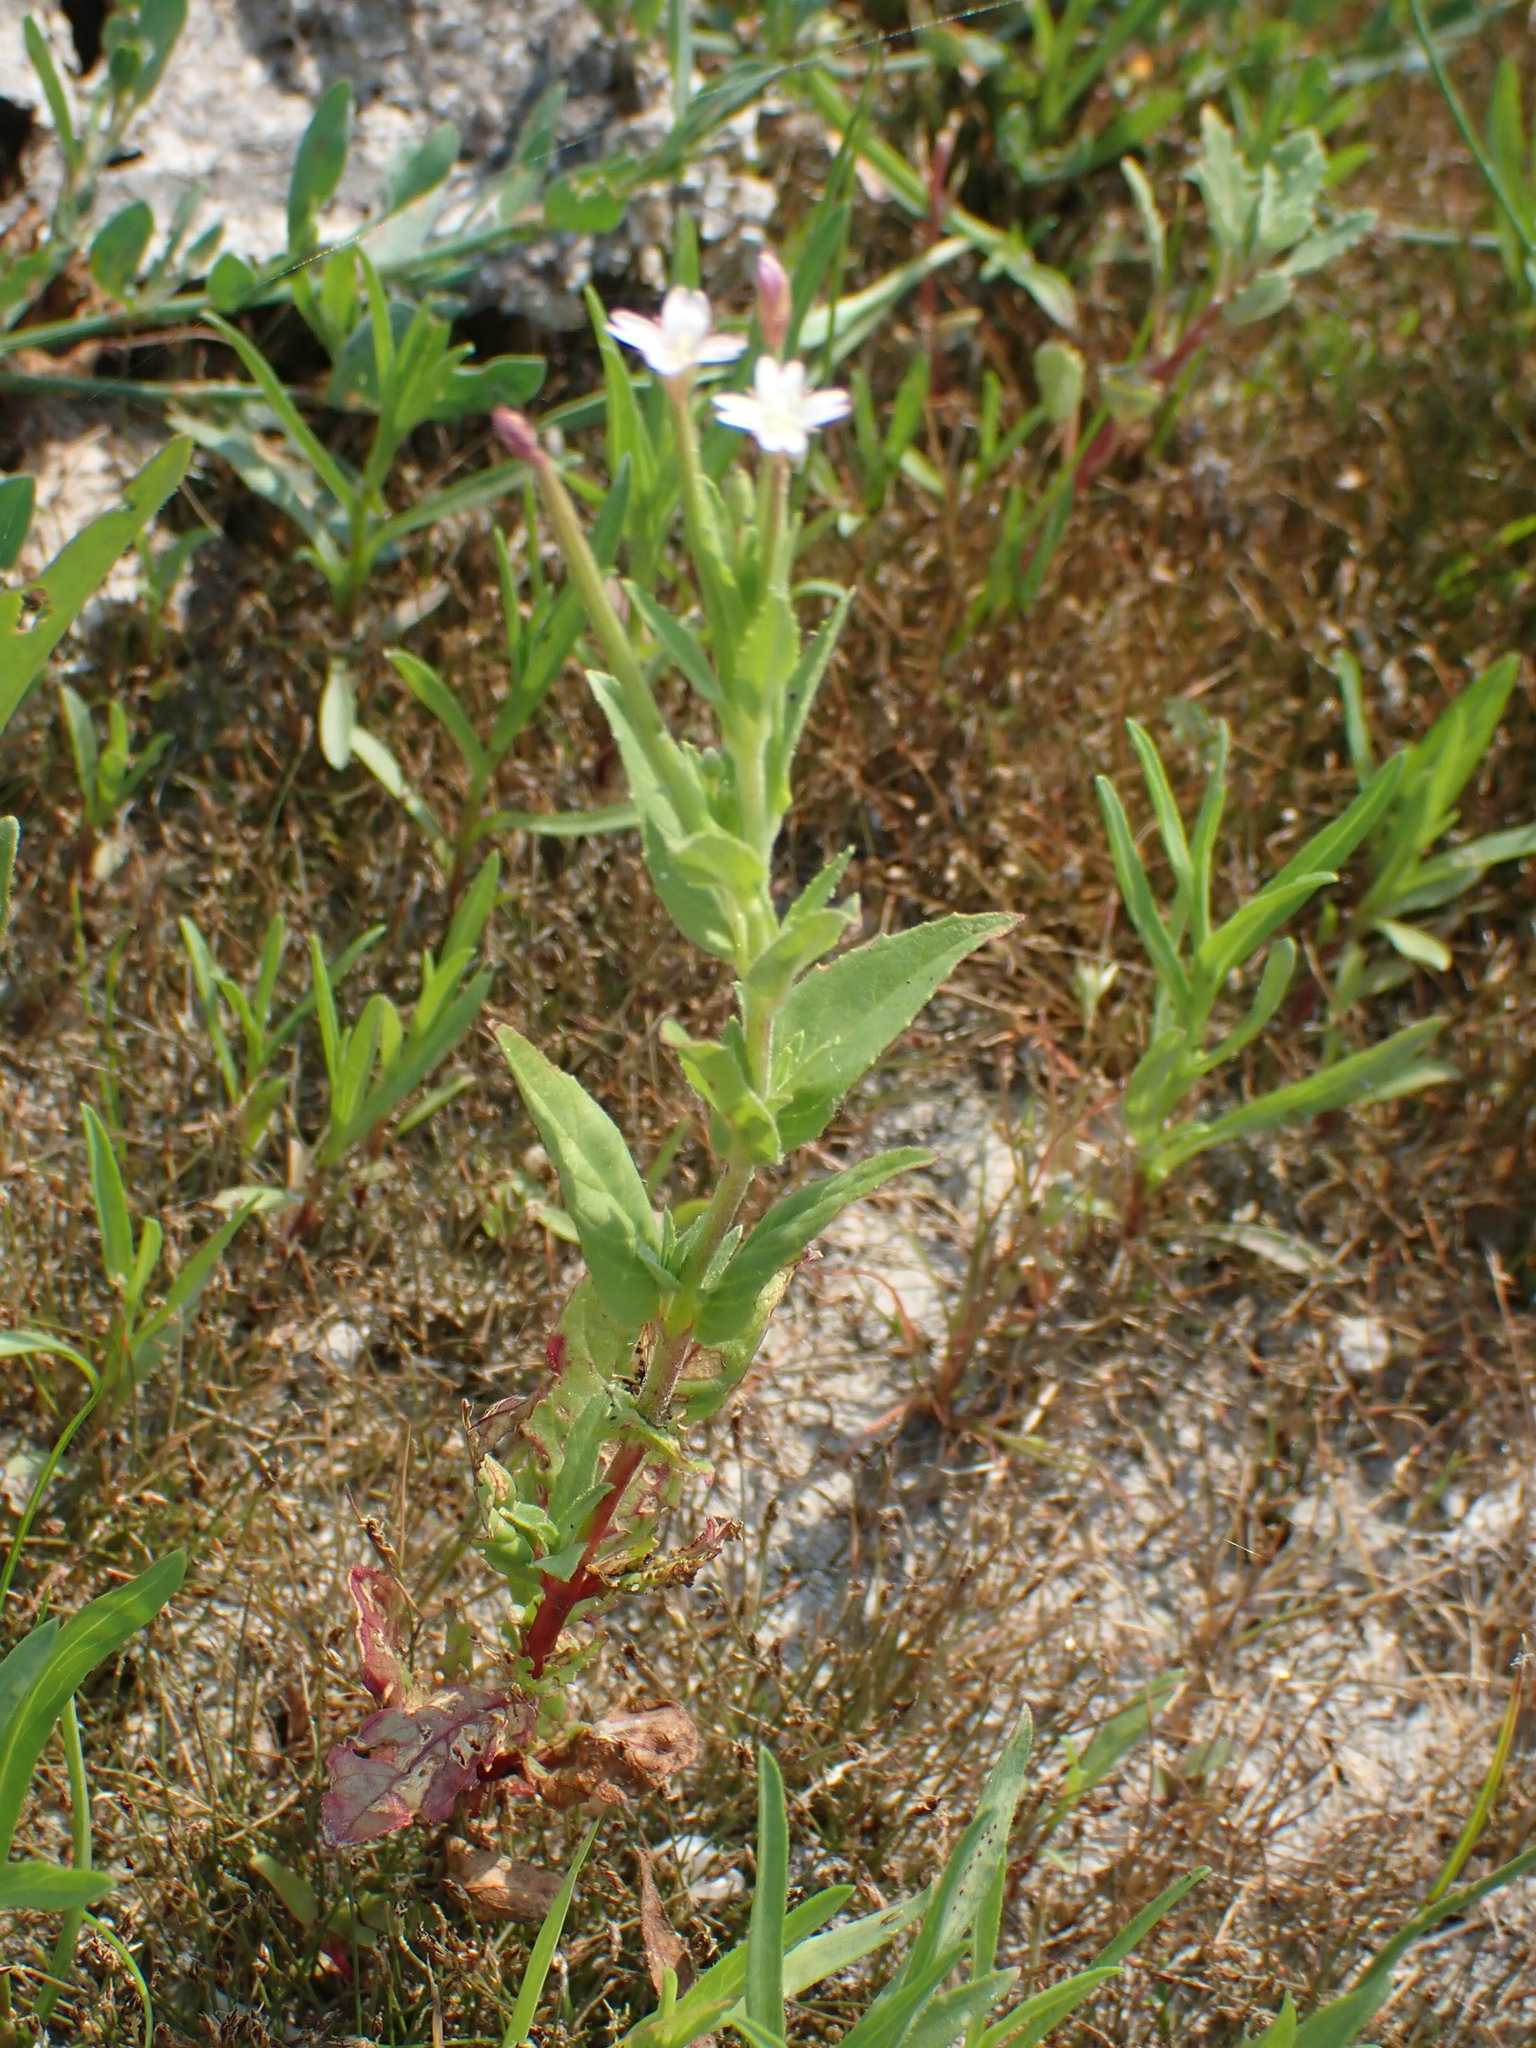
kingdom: Plantae
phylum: Tracheophyta
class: Magnoliopsida
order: Myrtales
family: Onagraceae
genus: Epilobium
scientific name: Epilobium ciliatum
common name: American willowherb
